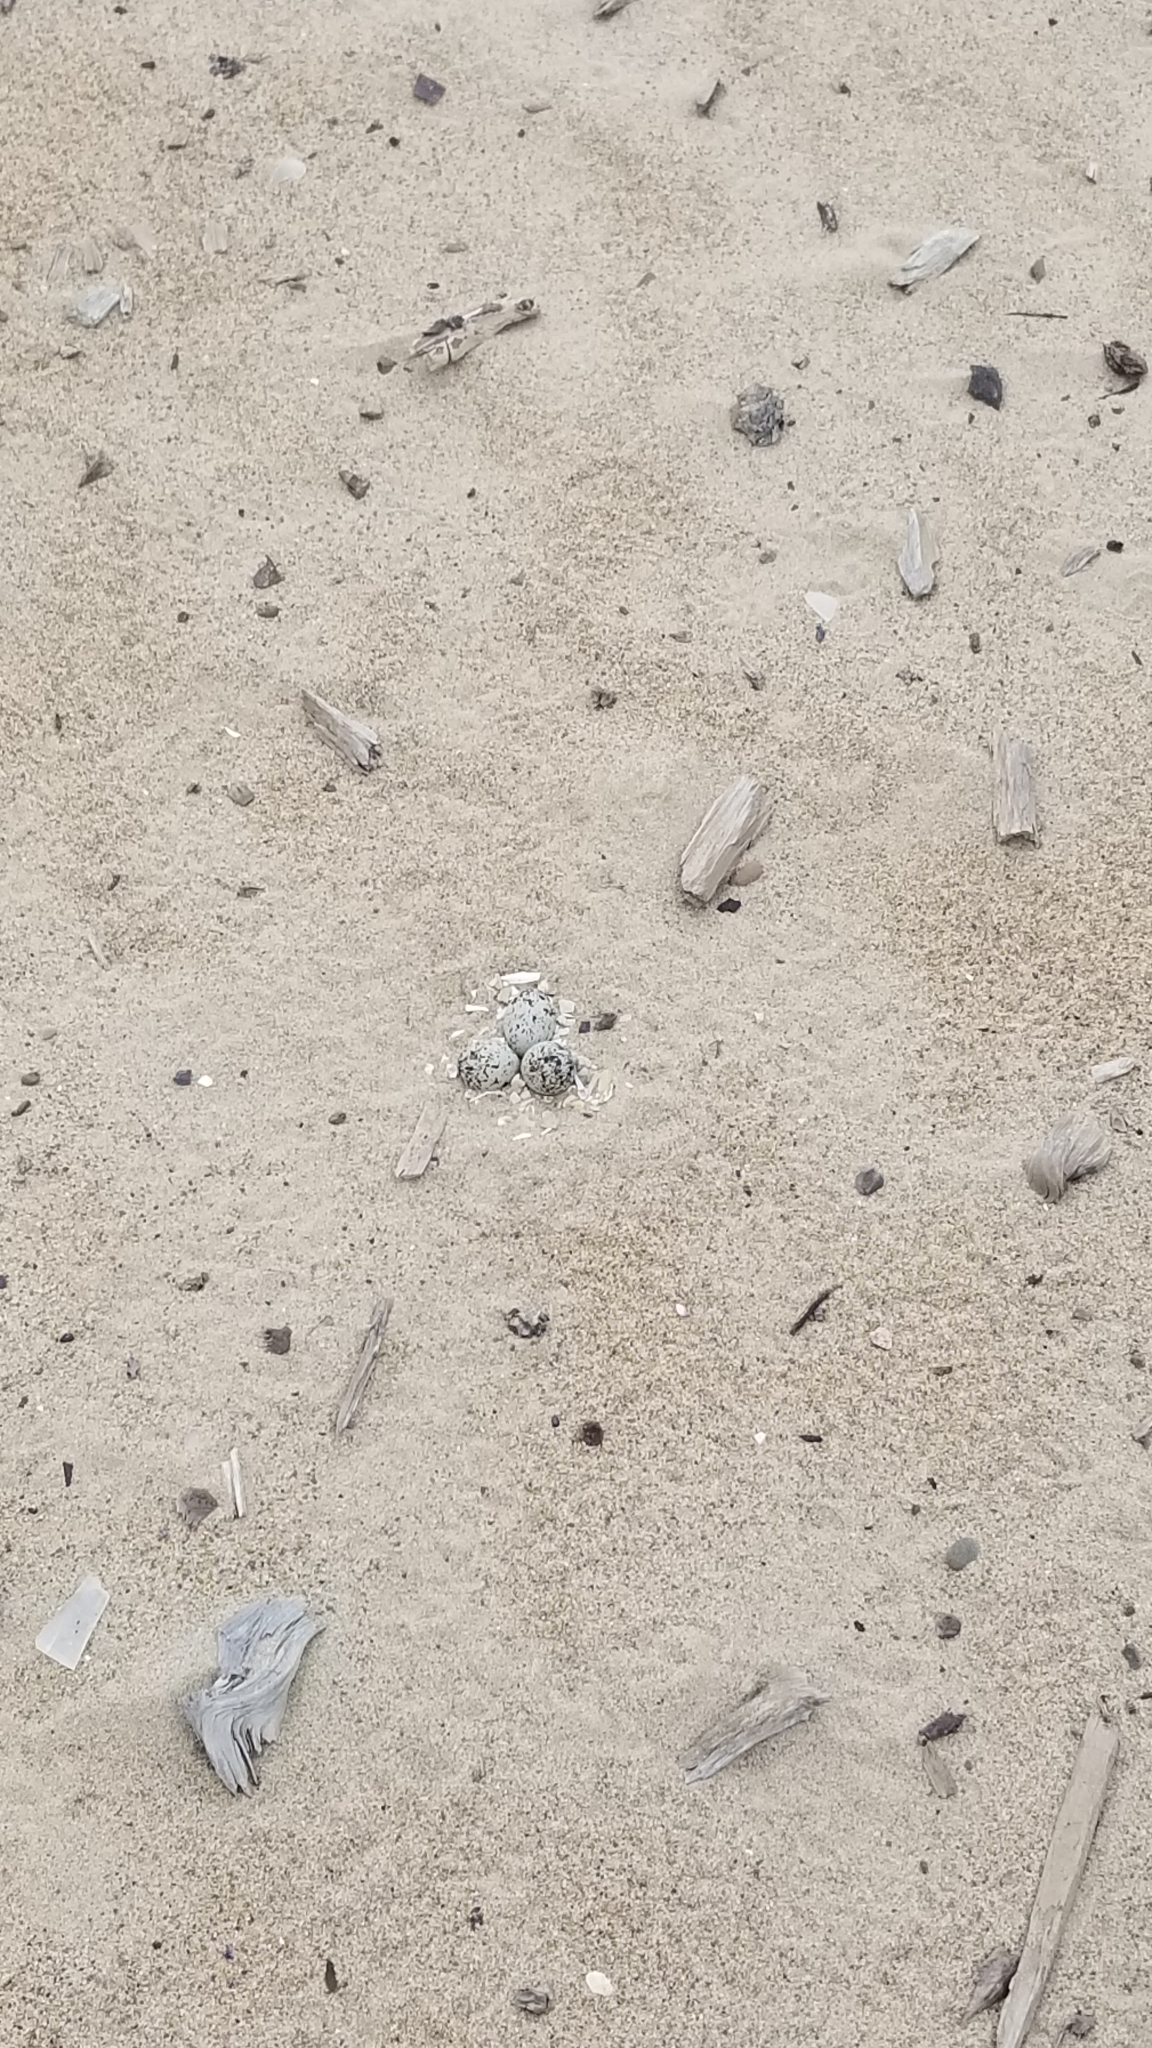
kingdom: Animalia
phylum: Chordata
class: Aves
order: Charadriiformes
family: Charadriidae
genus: Anarhynchus
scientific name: Anarhynchus
